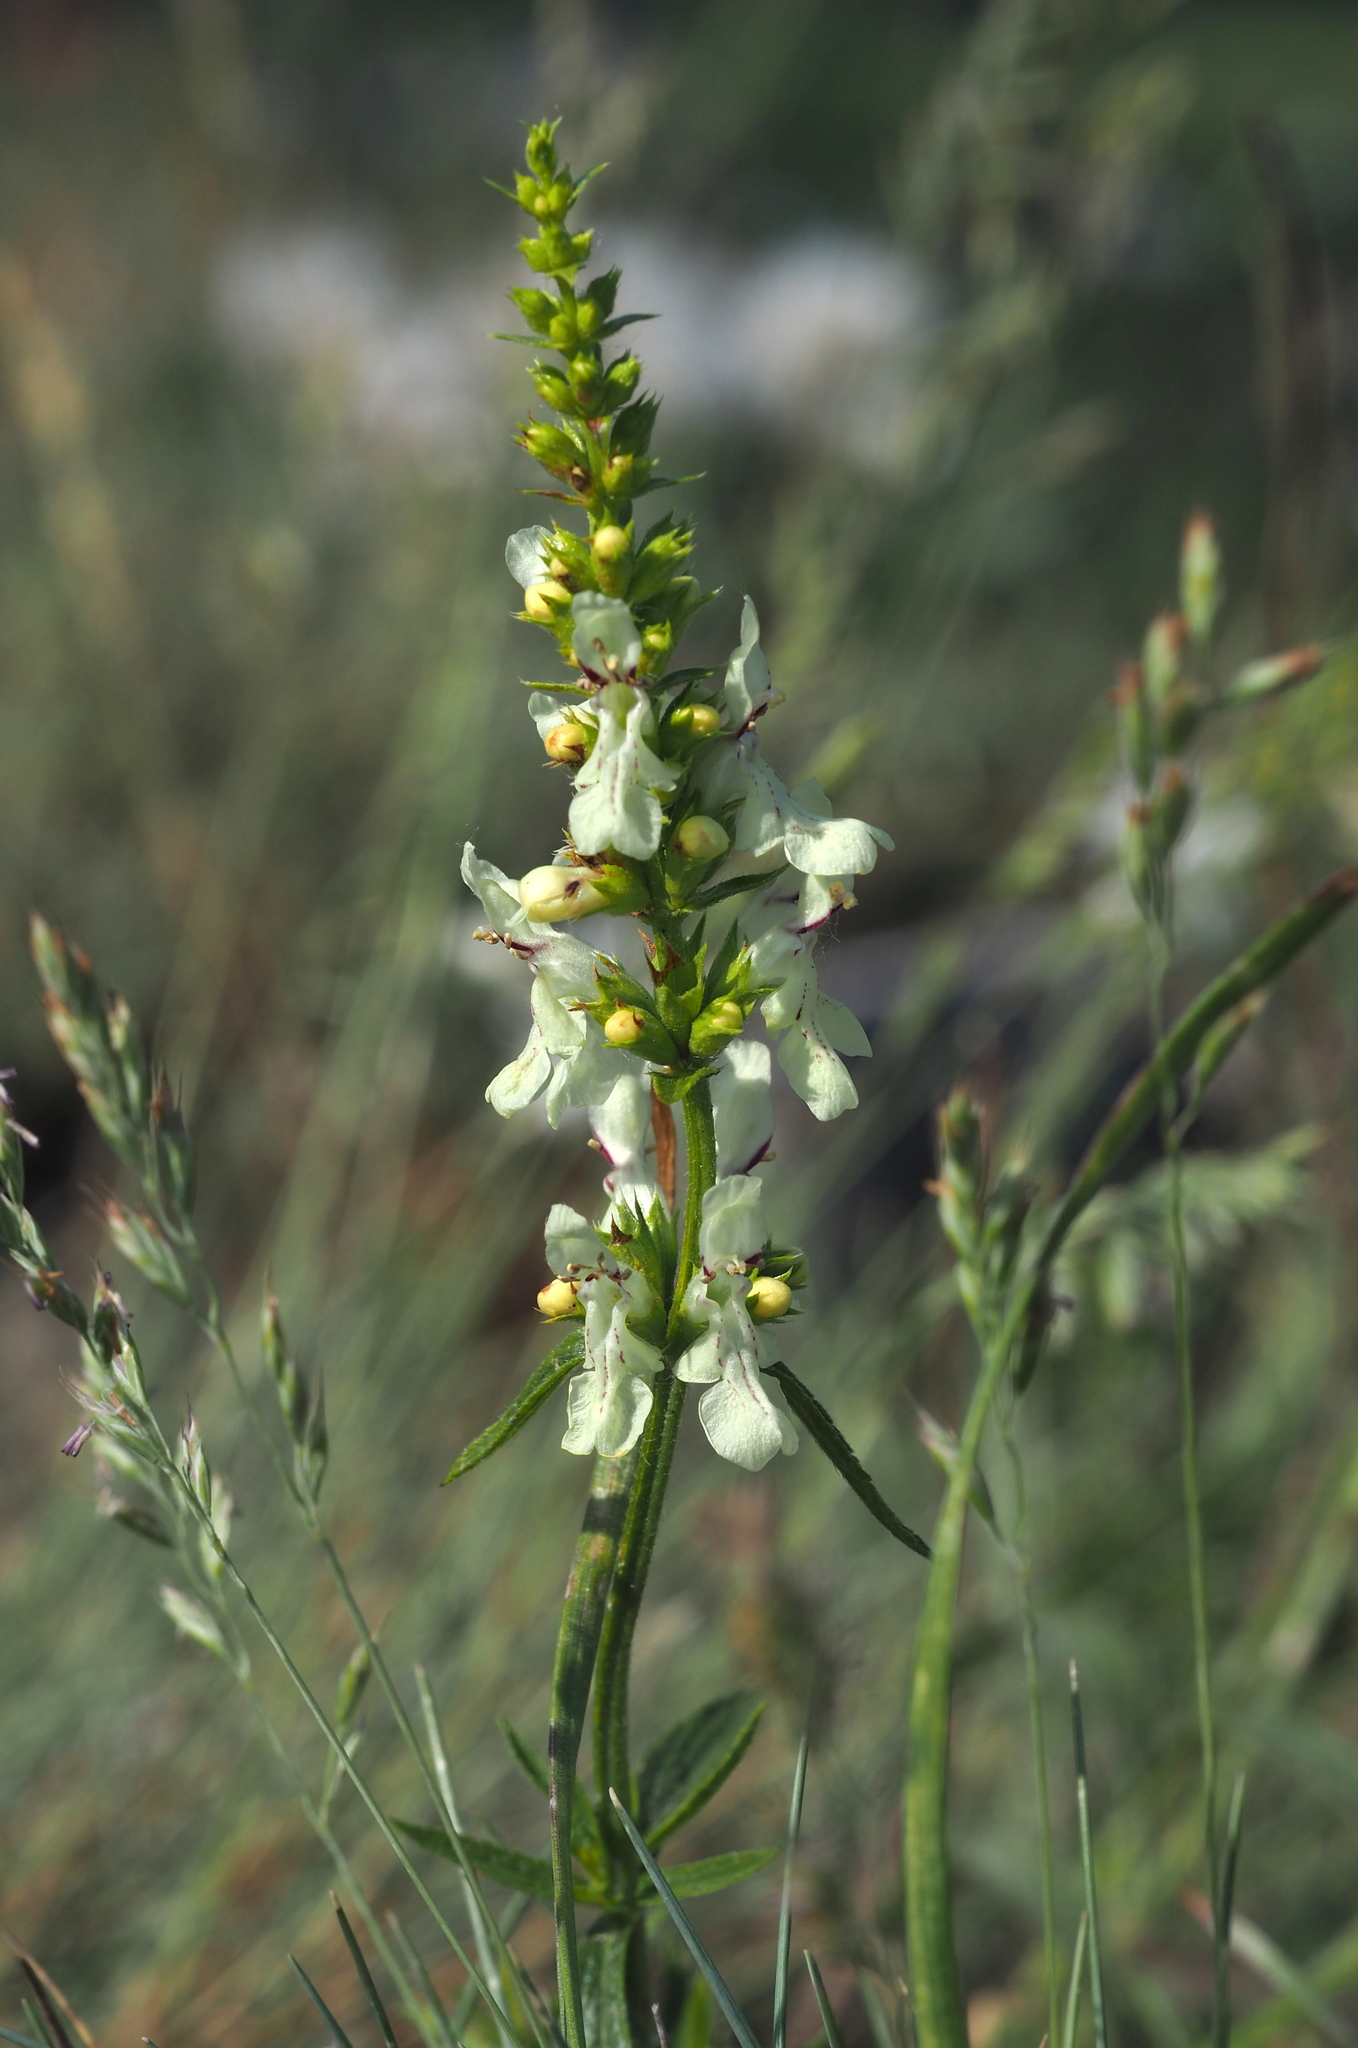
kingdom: Plantae
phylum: Tracheophyta
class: Magnoliopsida
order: Lamiales
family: Lamiaceae
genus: Stachys
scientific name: Stachys recta
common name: Perennial yellow-woundwort
